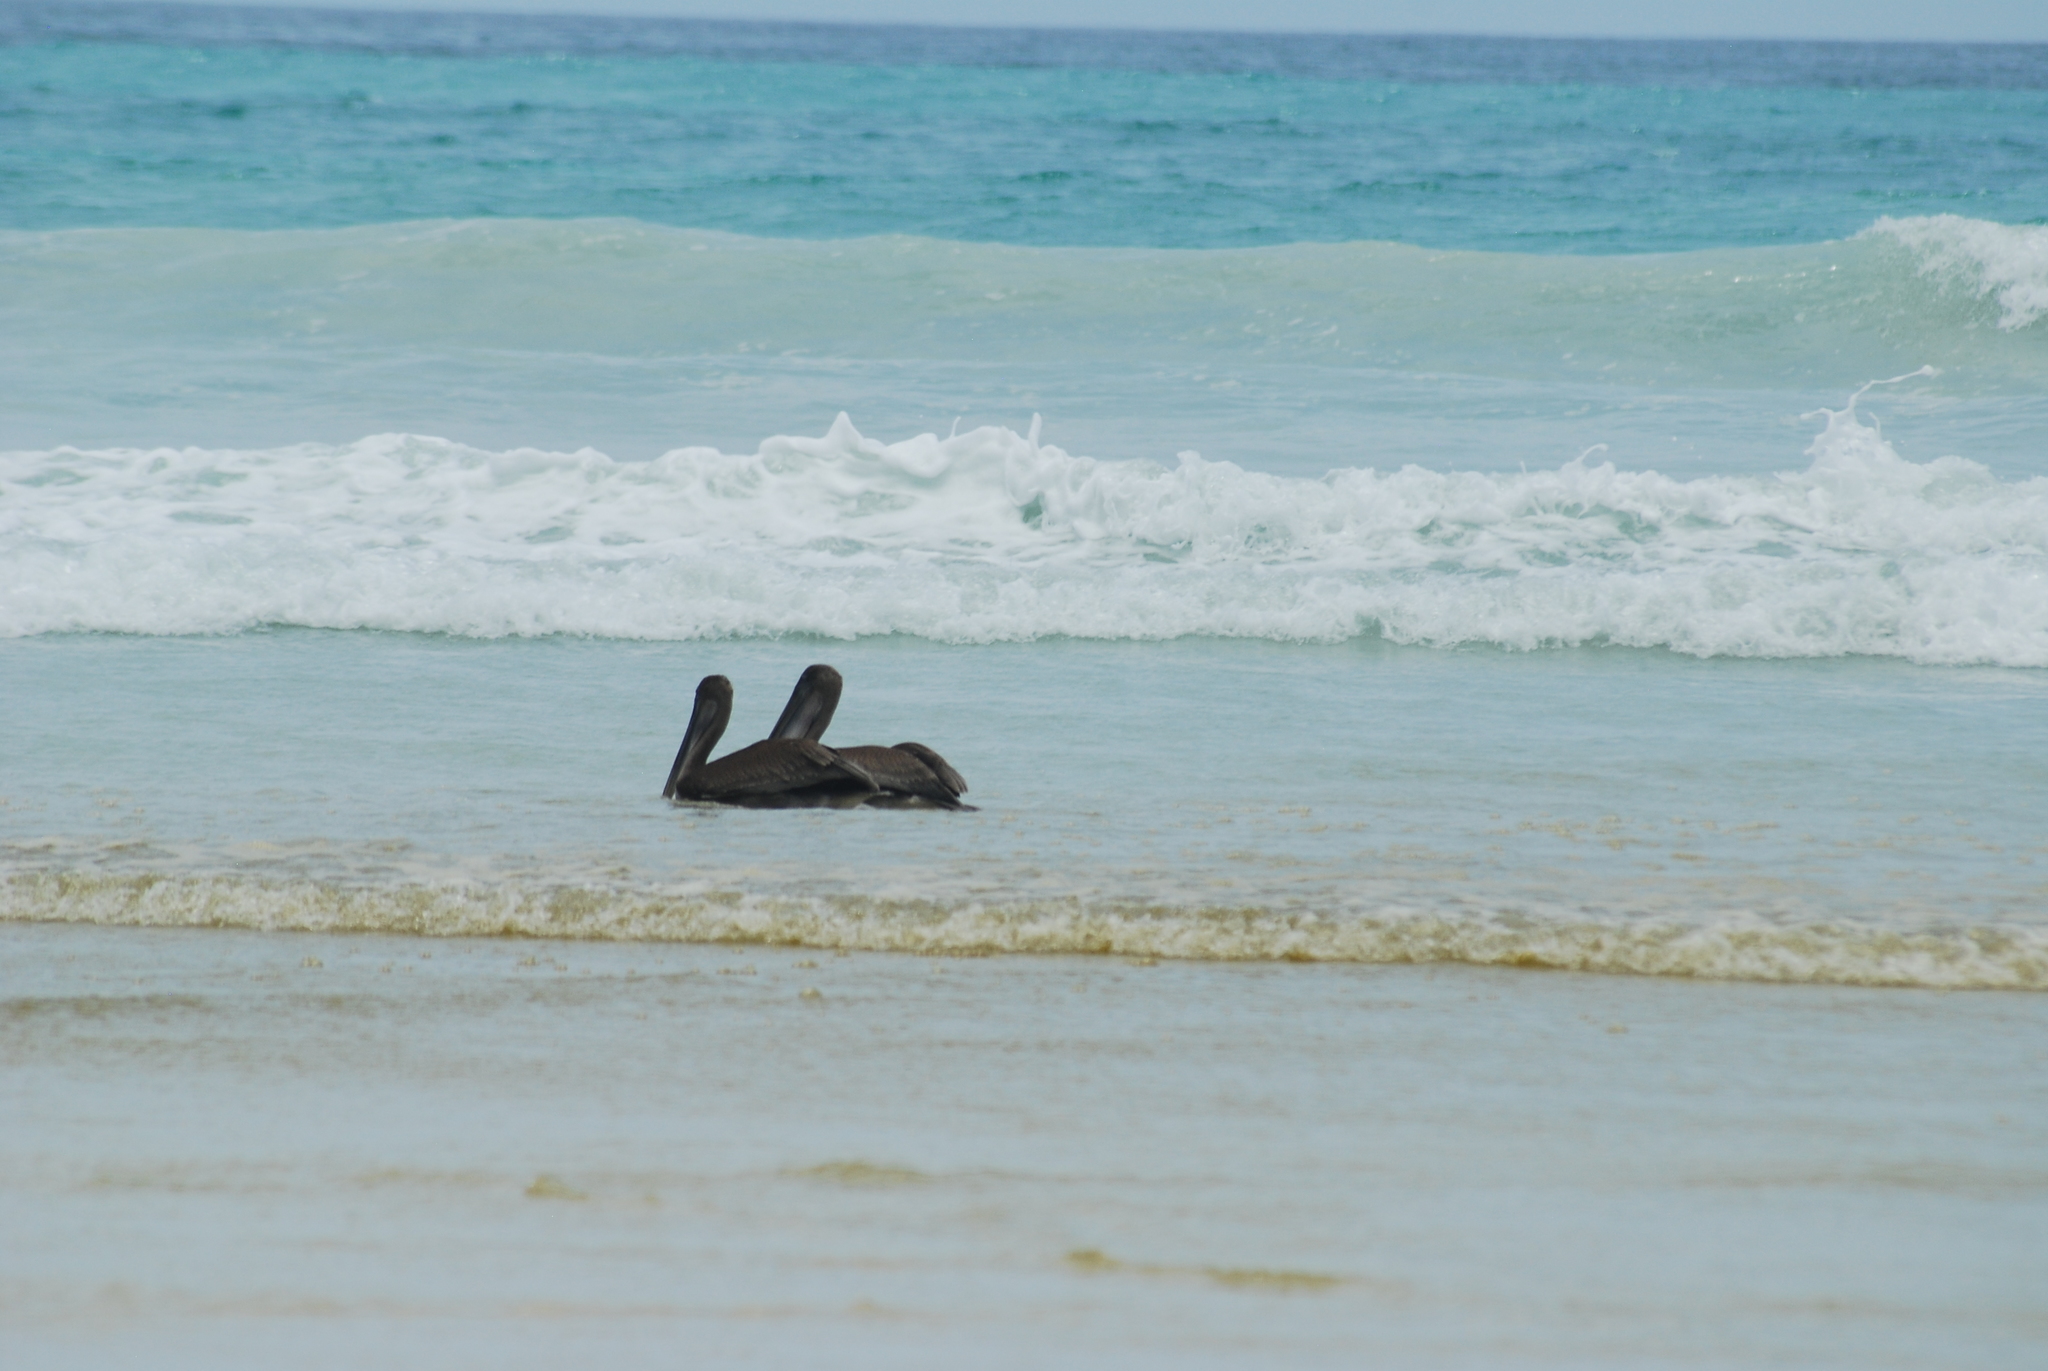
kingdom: Animalia
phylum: Chordata
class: Aves
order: Pelecaniformes
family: Pelecanidae
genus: Pelecanus
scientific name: Pelecanus occidentalis
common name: Brown pelican
